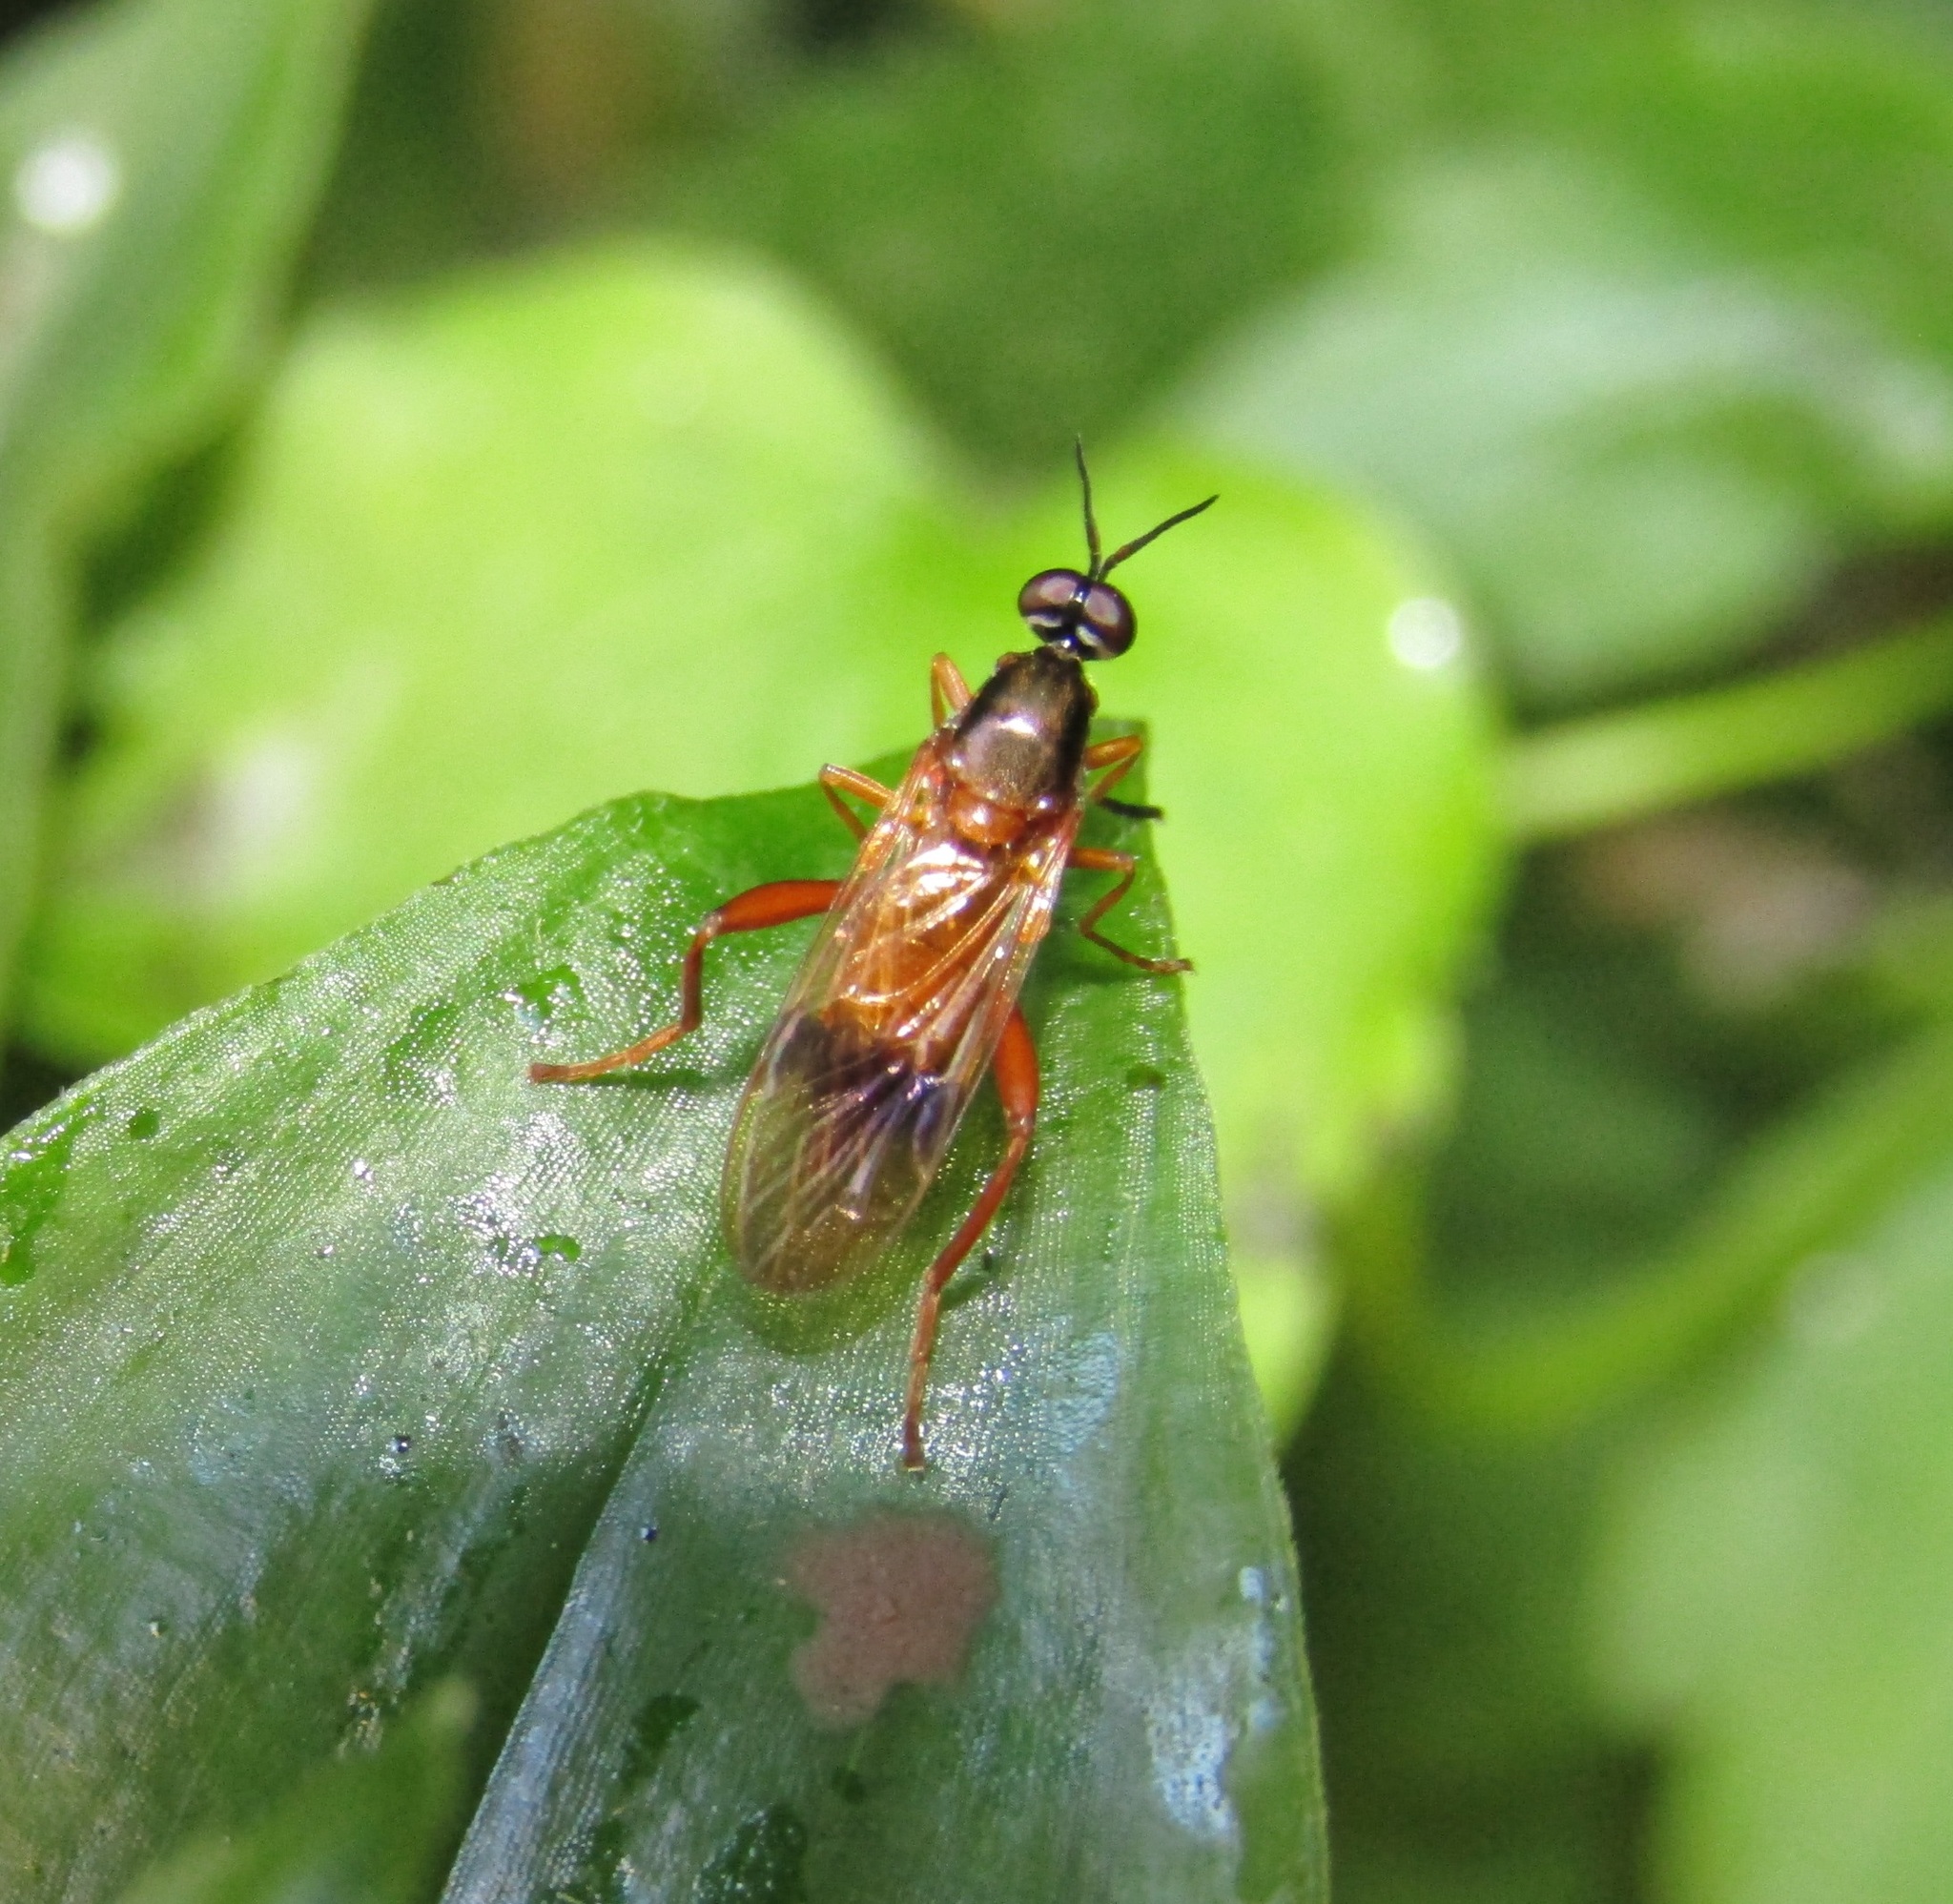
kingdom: Animalia
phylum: Arthropoda
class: Insecta
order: Diptera
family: Stratiomyidae
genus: Benhamyia
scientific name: Benhamyia apicalis
